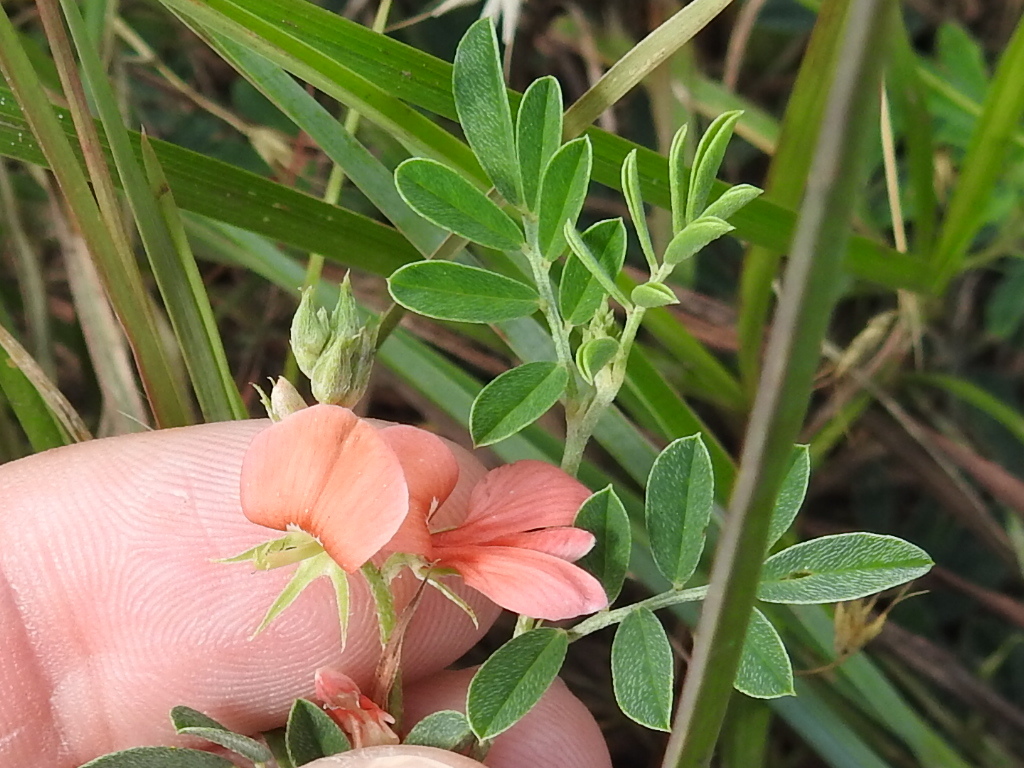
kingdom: Plantae
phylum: Tracheophyta
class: Magnoliopsida
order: Fabales
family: Fabaceae
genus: Indigofera
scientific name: Indigofera miniata
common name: Coast indigo
